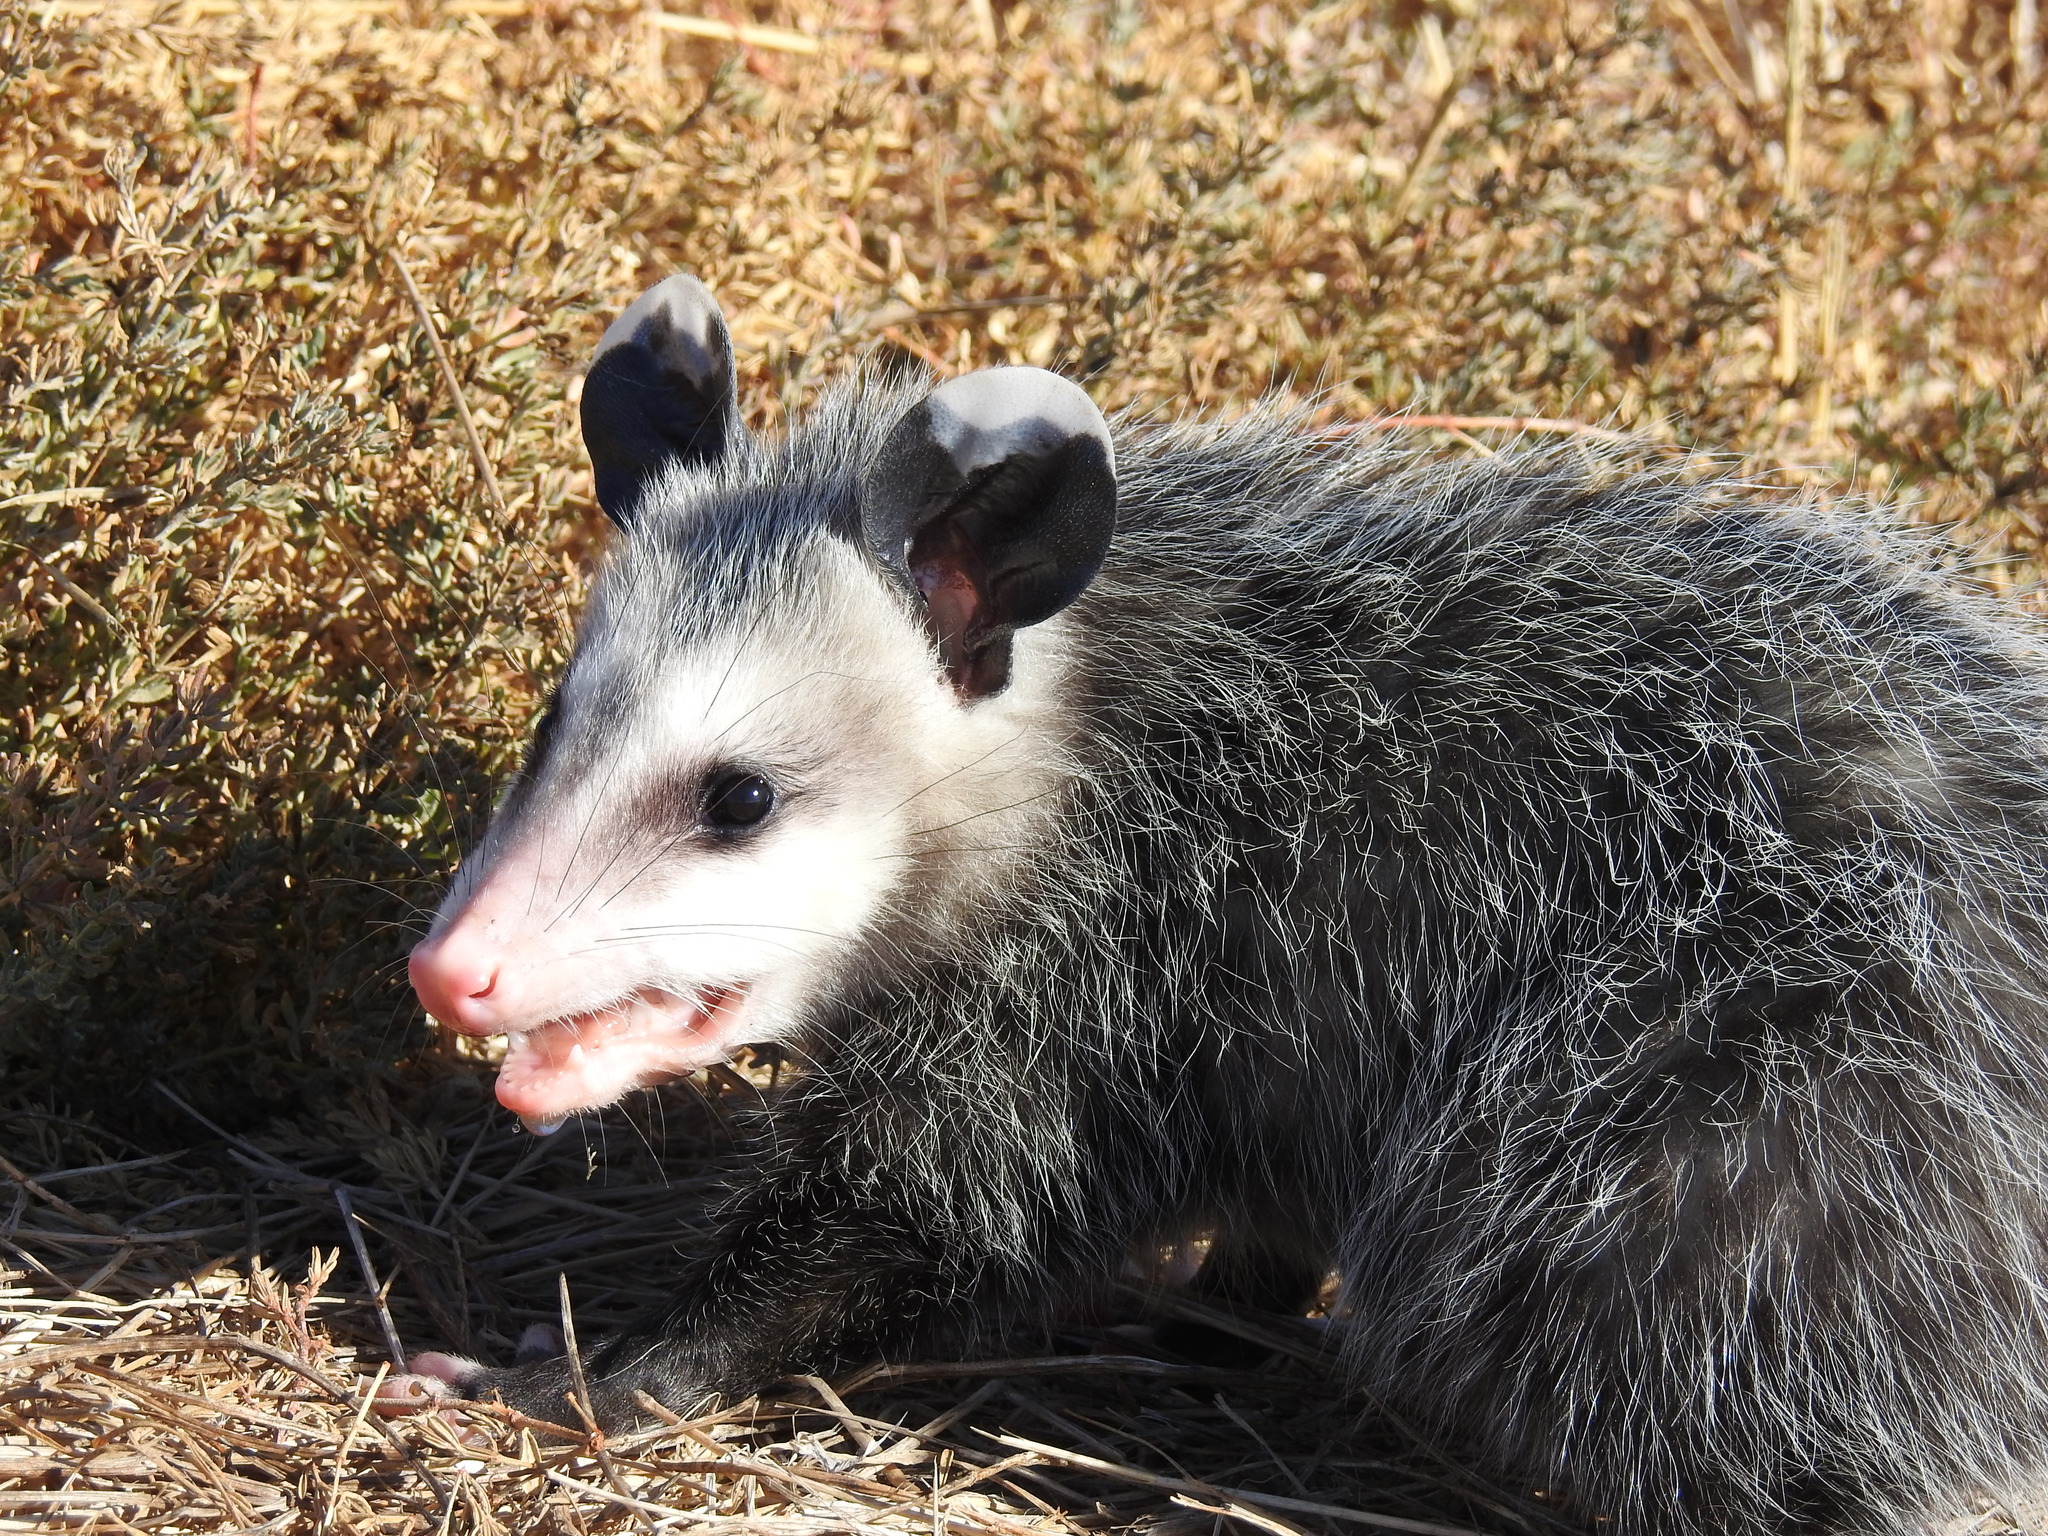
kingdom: Animalia
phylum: Chordata
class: Mammalia
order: Didelphimorphia
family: Didelphidae
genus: Didelphis
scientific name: Didelphis virginiana
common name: Virginia opossum
